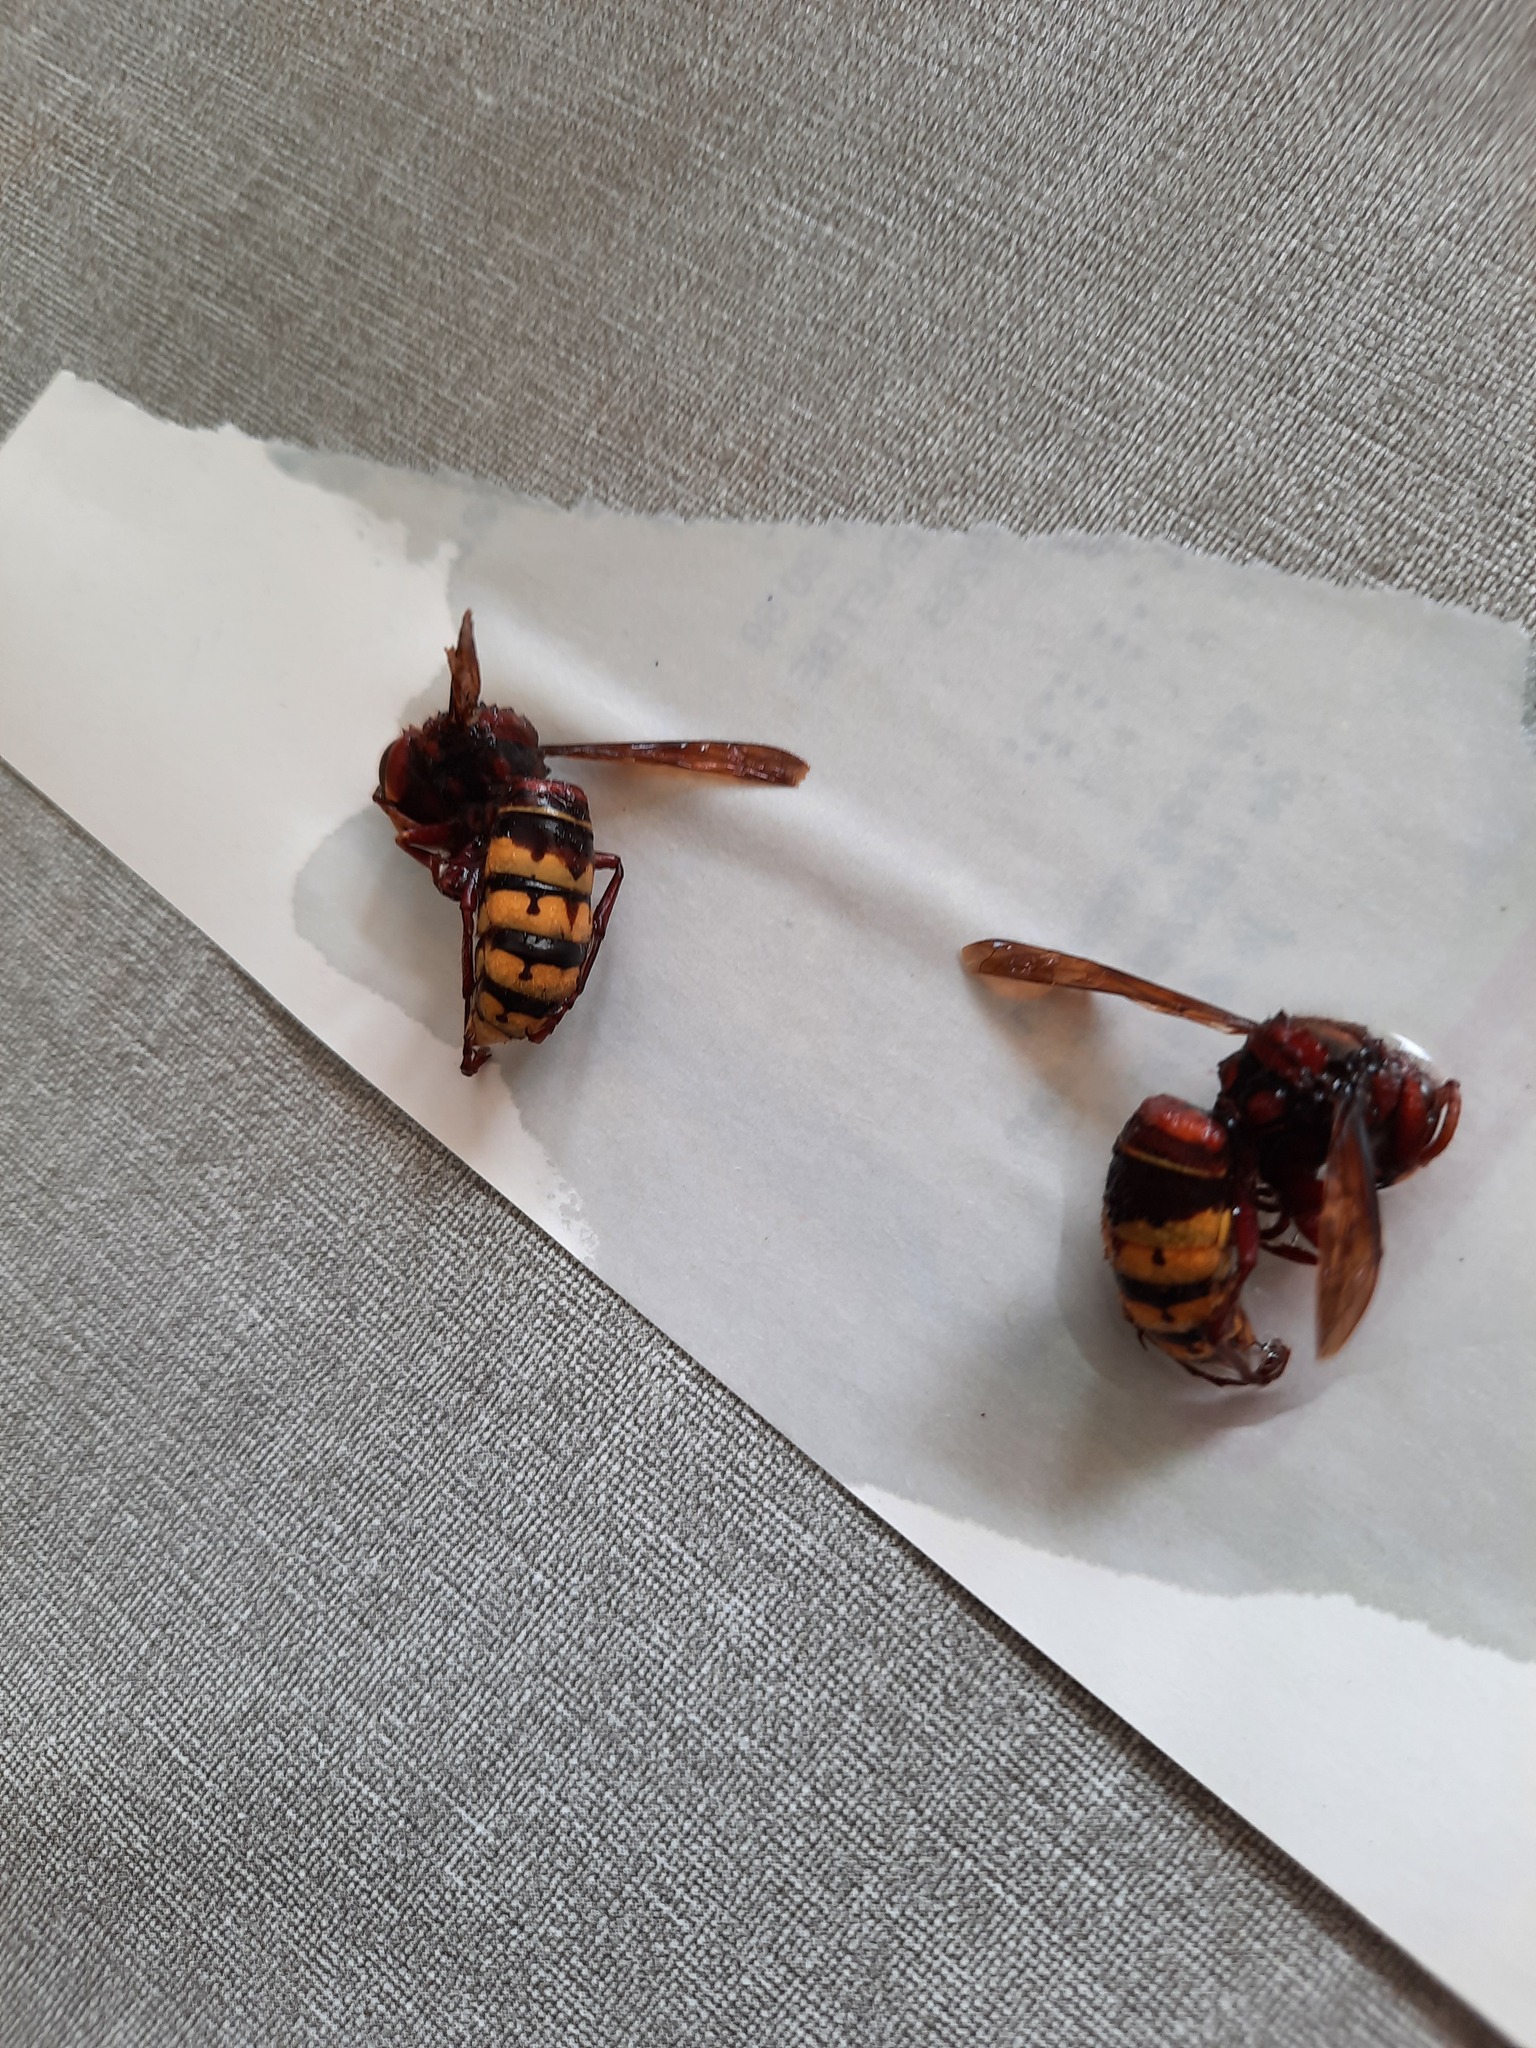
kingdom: Animalia
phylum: Arthropoda
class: Insecta
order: Hymenoptera
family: Vespidae
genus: Vespa
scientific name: Vespa crabro
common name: Hornet
